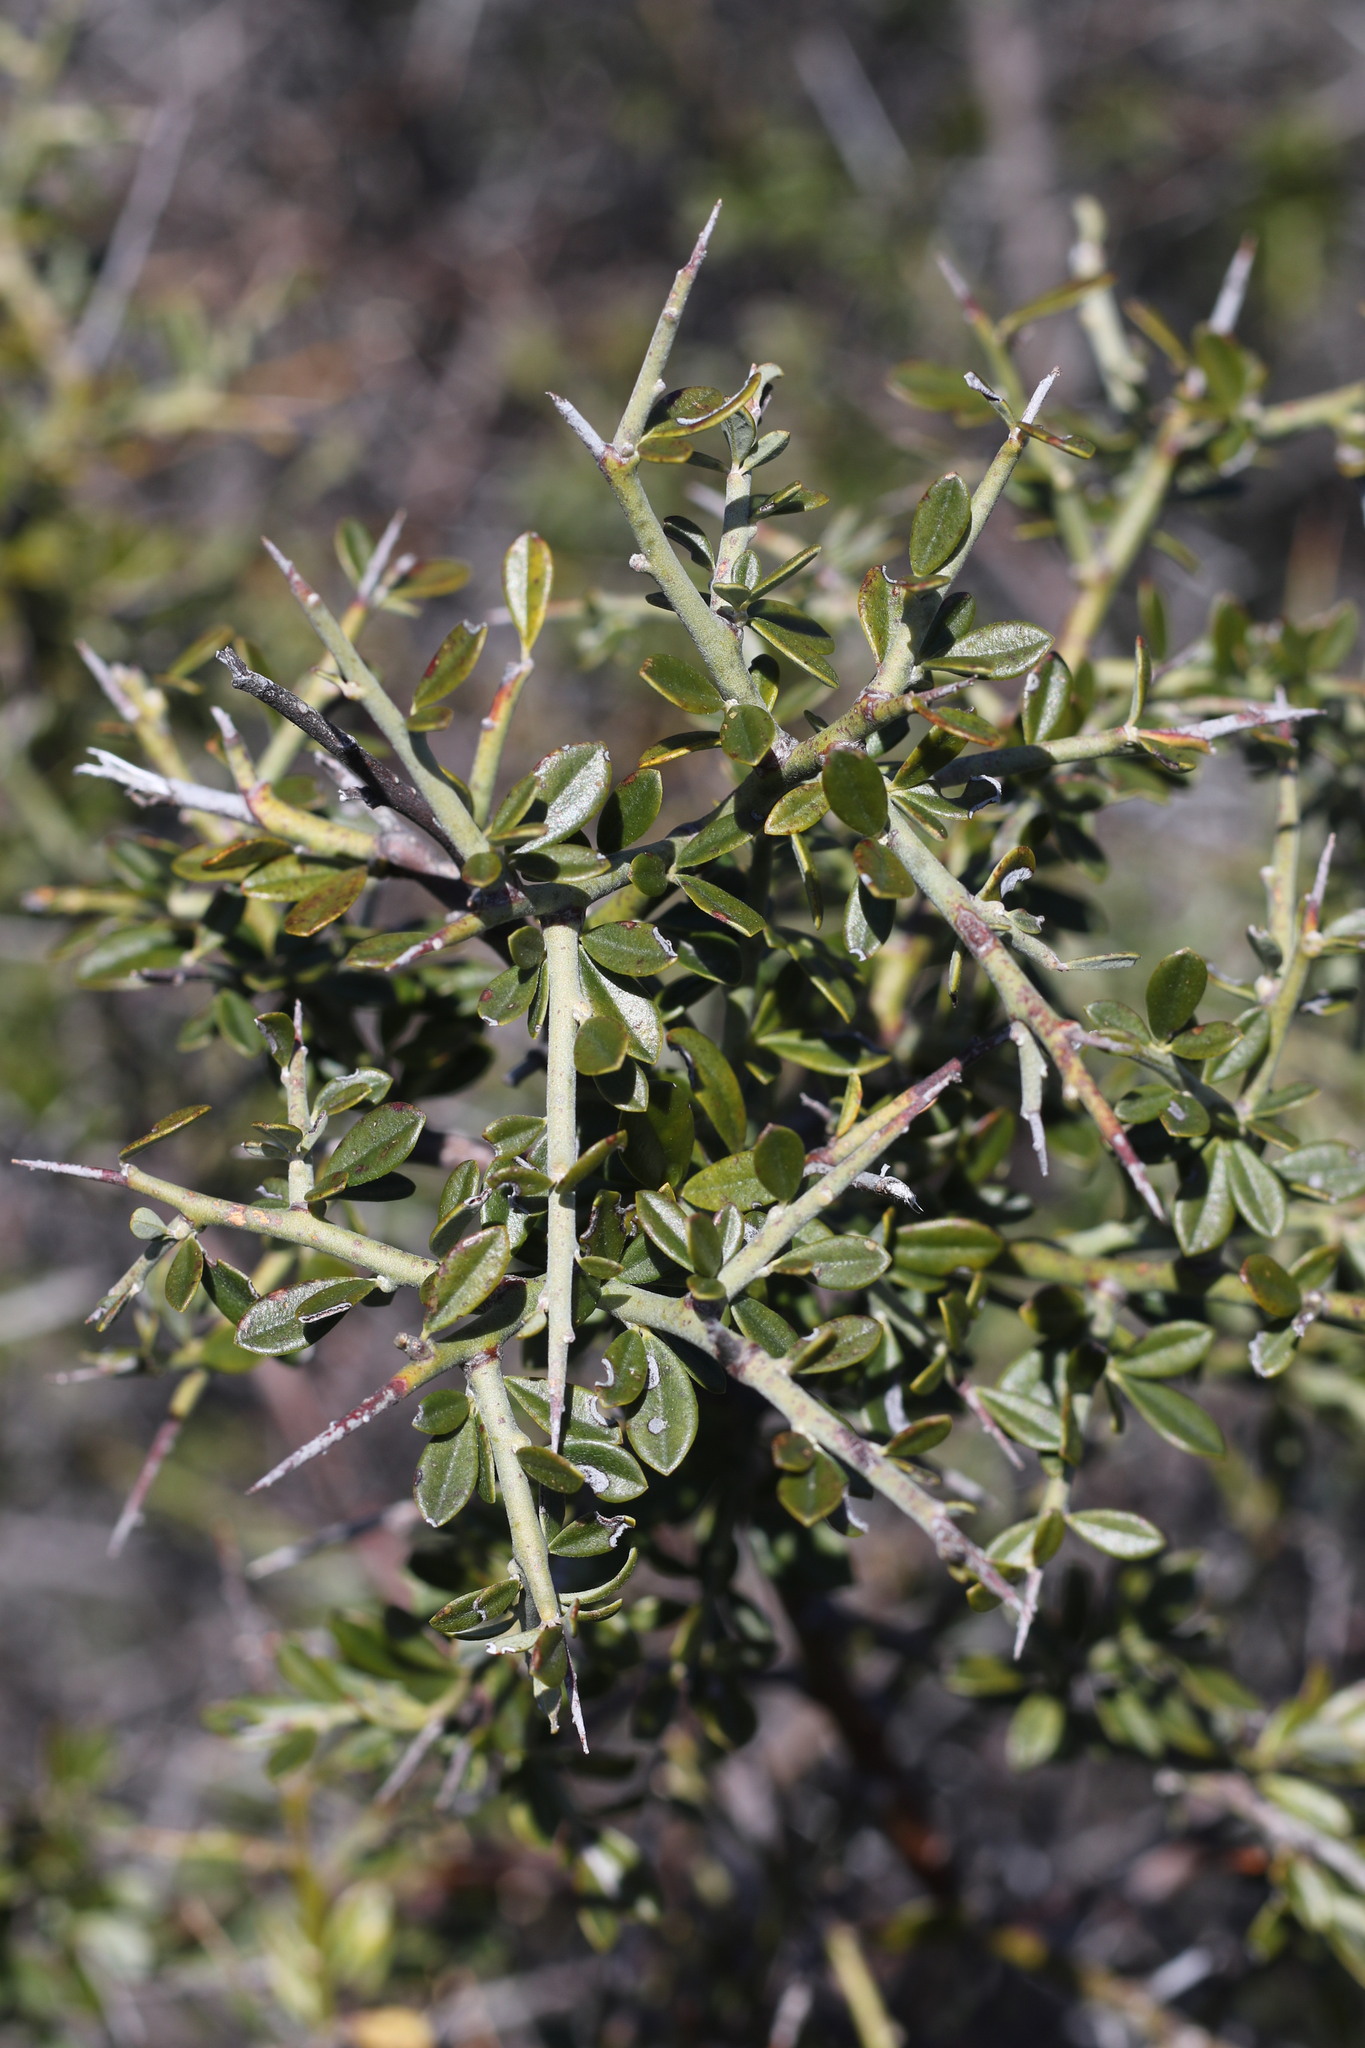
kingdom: Plantae
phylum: Tracheophyta
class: Magnoliopsida
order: Fabales
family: Fabaceae
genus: Pickeringia
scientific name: Pickeringia montana
